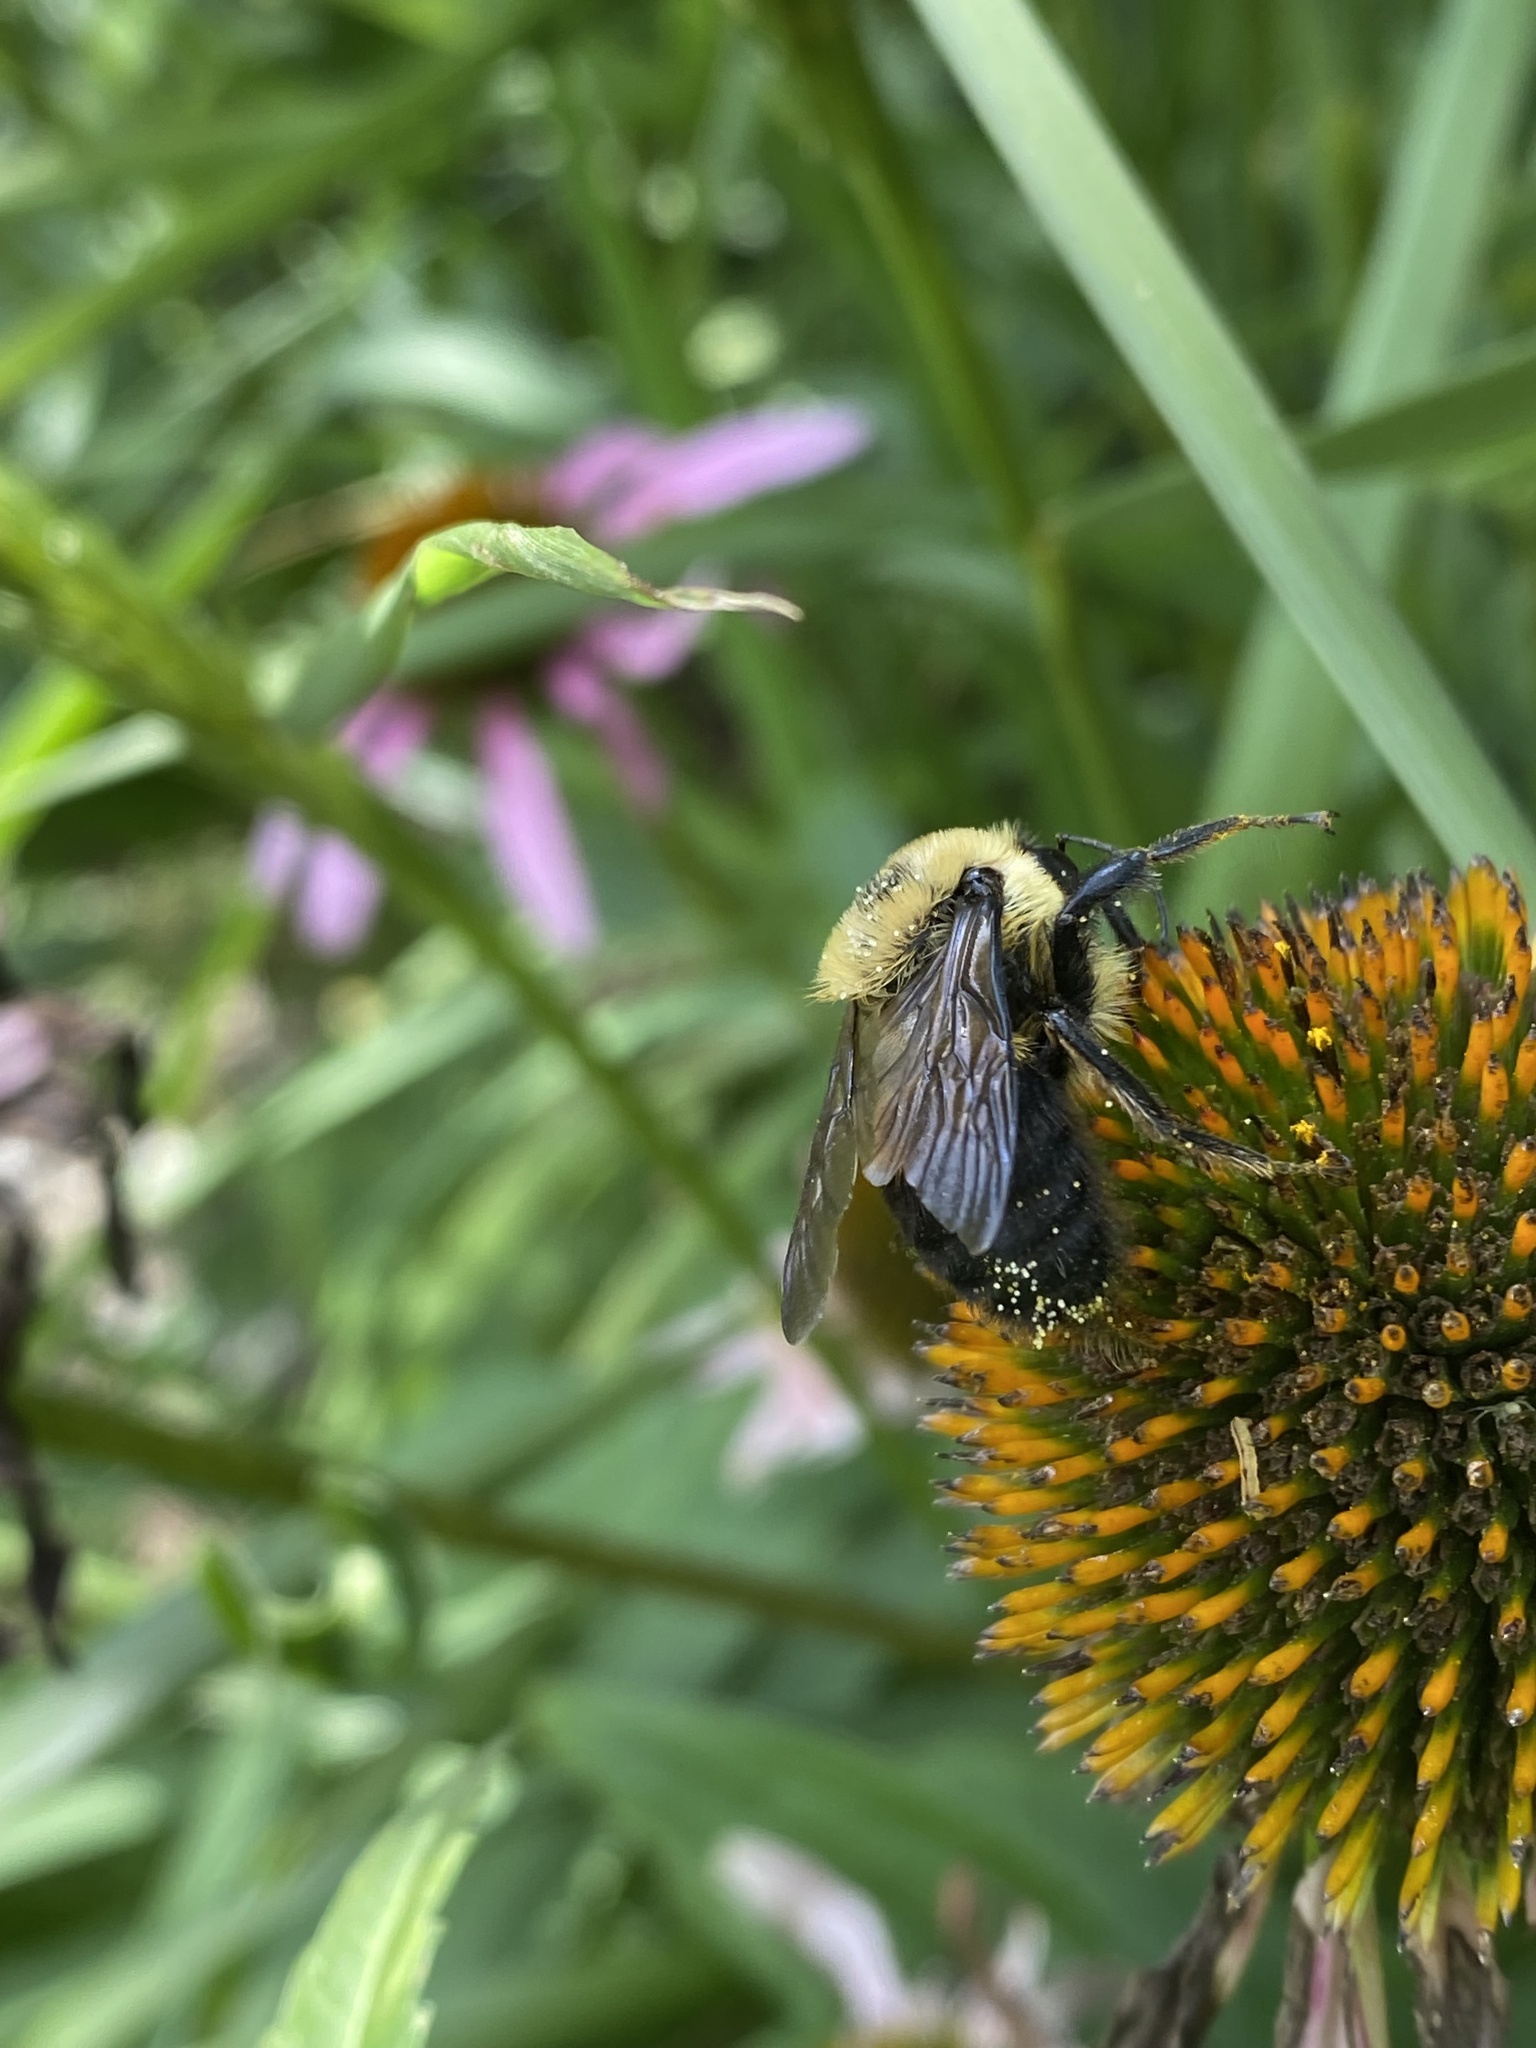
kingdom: Animalia
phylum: Arthropoda
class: Insecta
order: Hymenoptera
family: Apidae
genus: Bombus
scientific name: Bombus griseocollis
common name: Brown-belted bumble bee
